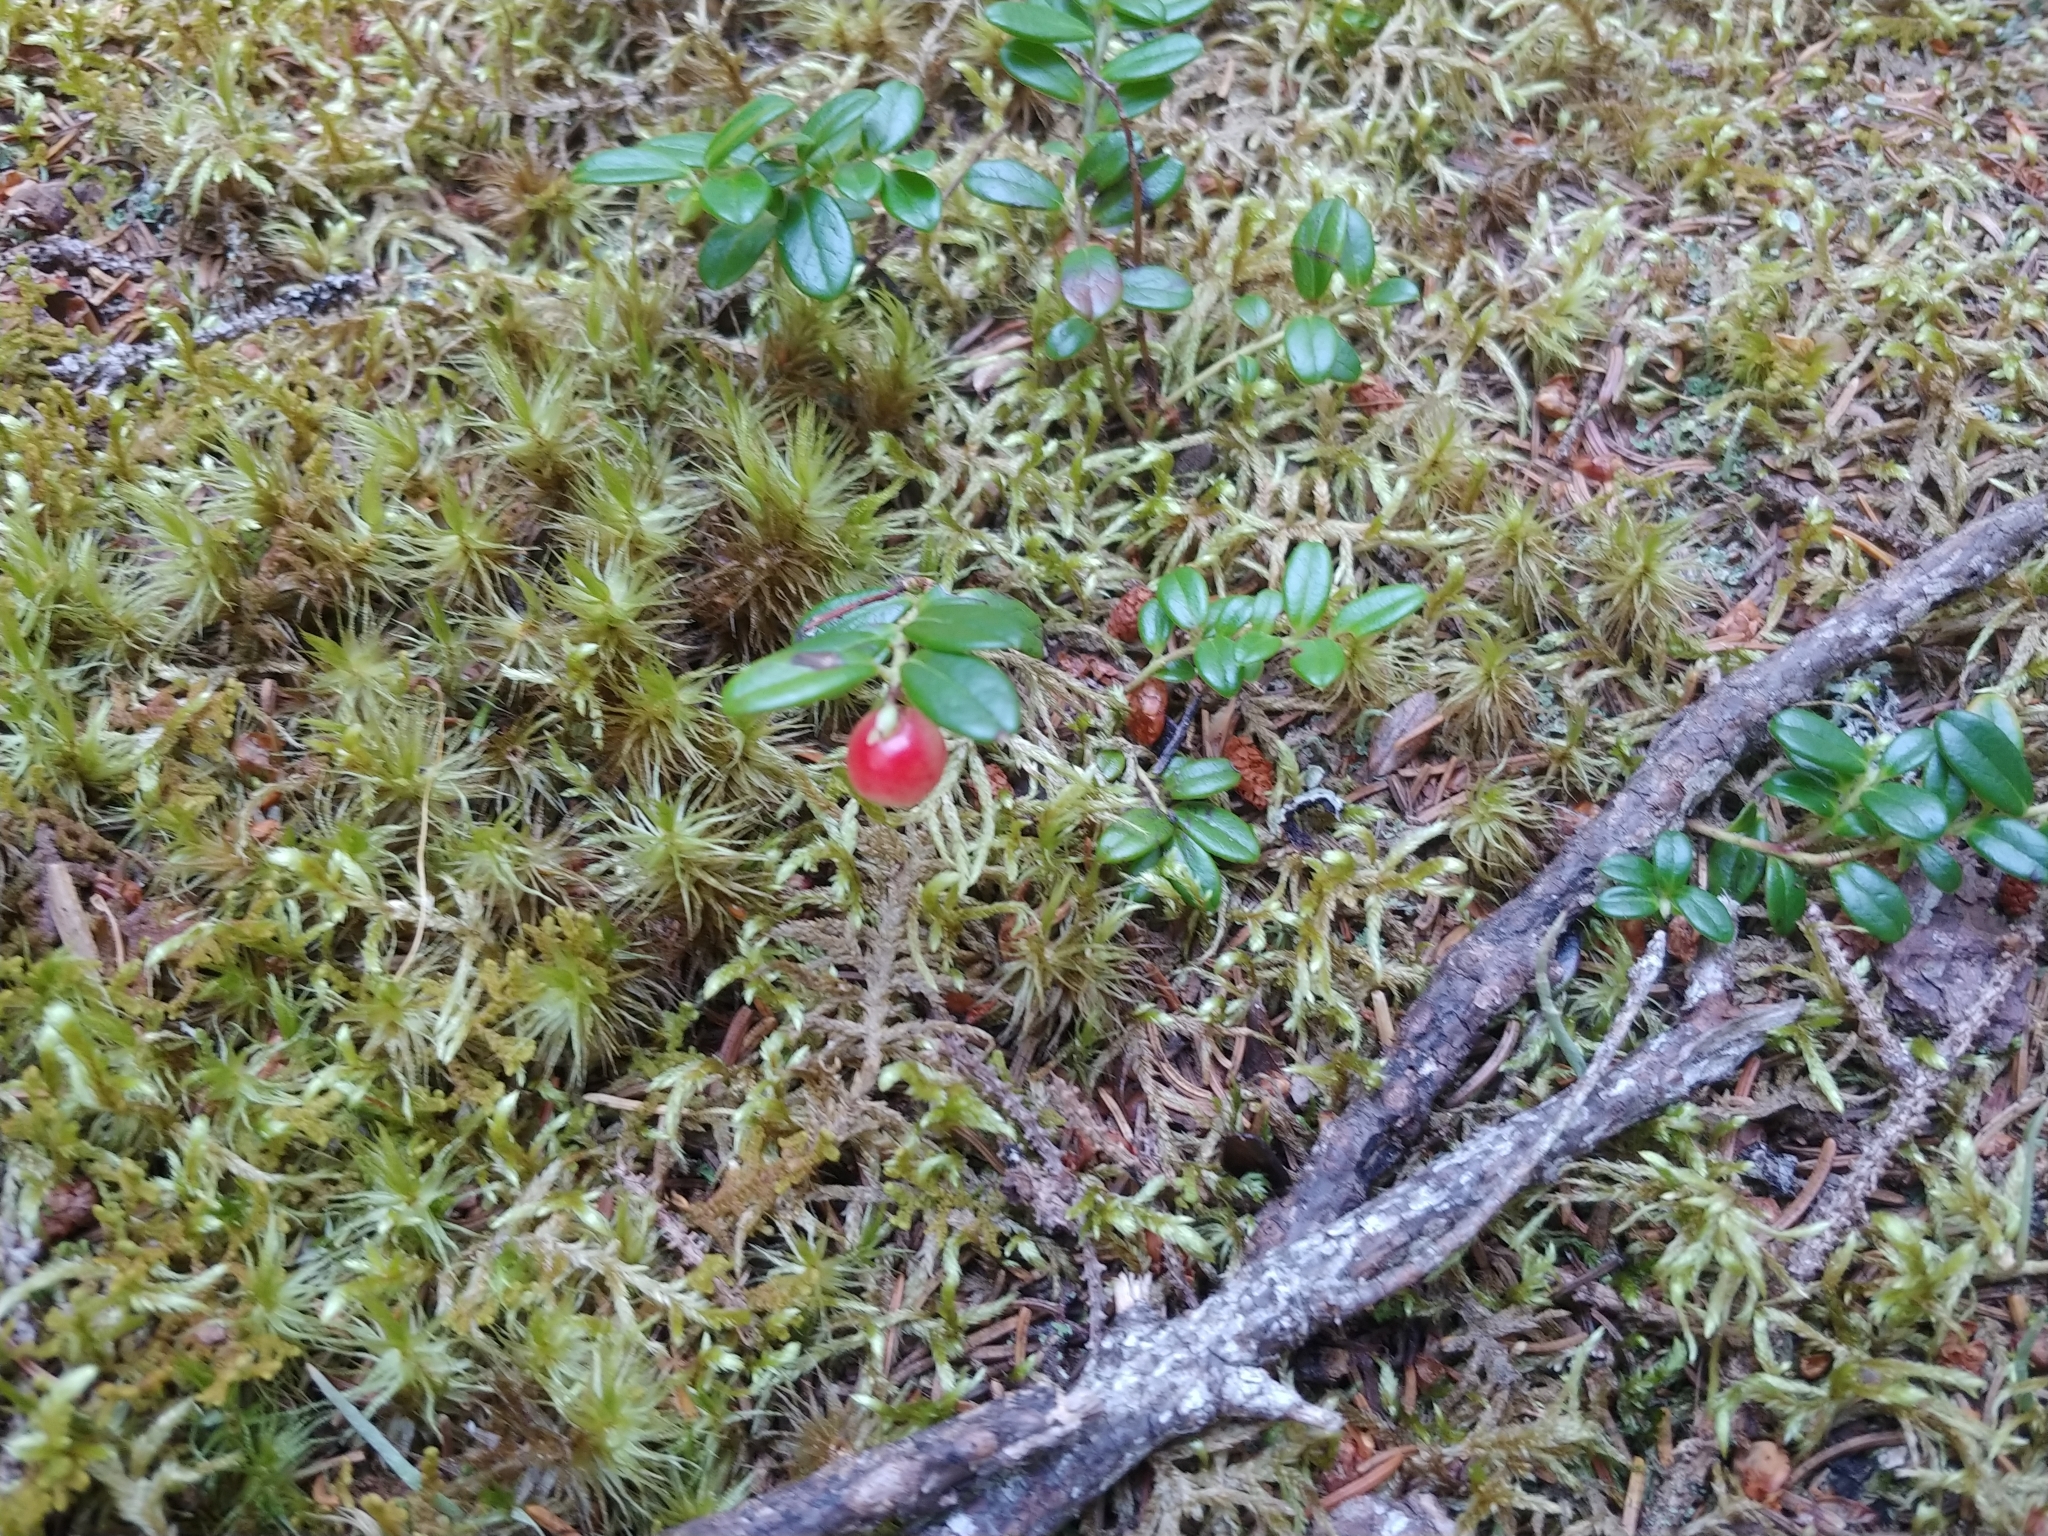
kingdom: Plantae
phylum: Tracheophyta
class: Magnoliopsida
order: Ericales
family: Ericaceae
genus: Vaccinium
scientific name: Vaccinium vitis-idaea
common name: Cowberry
